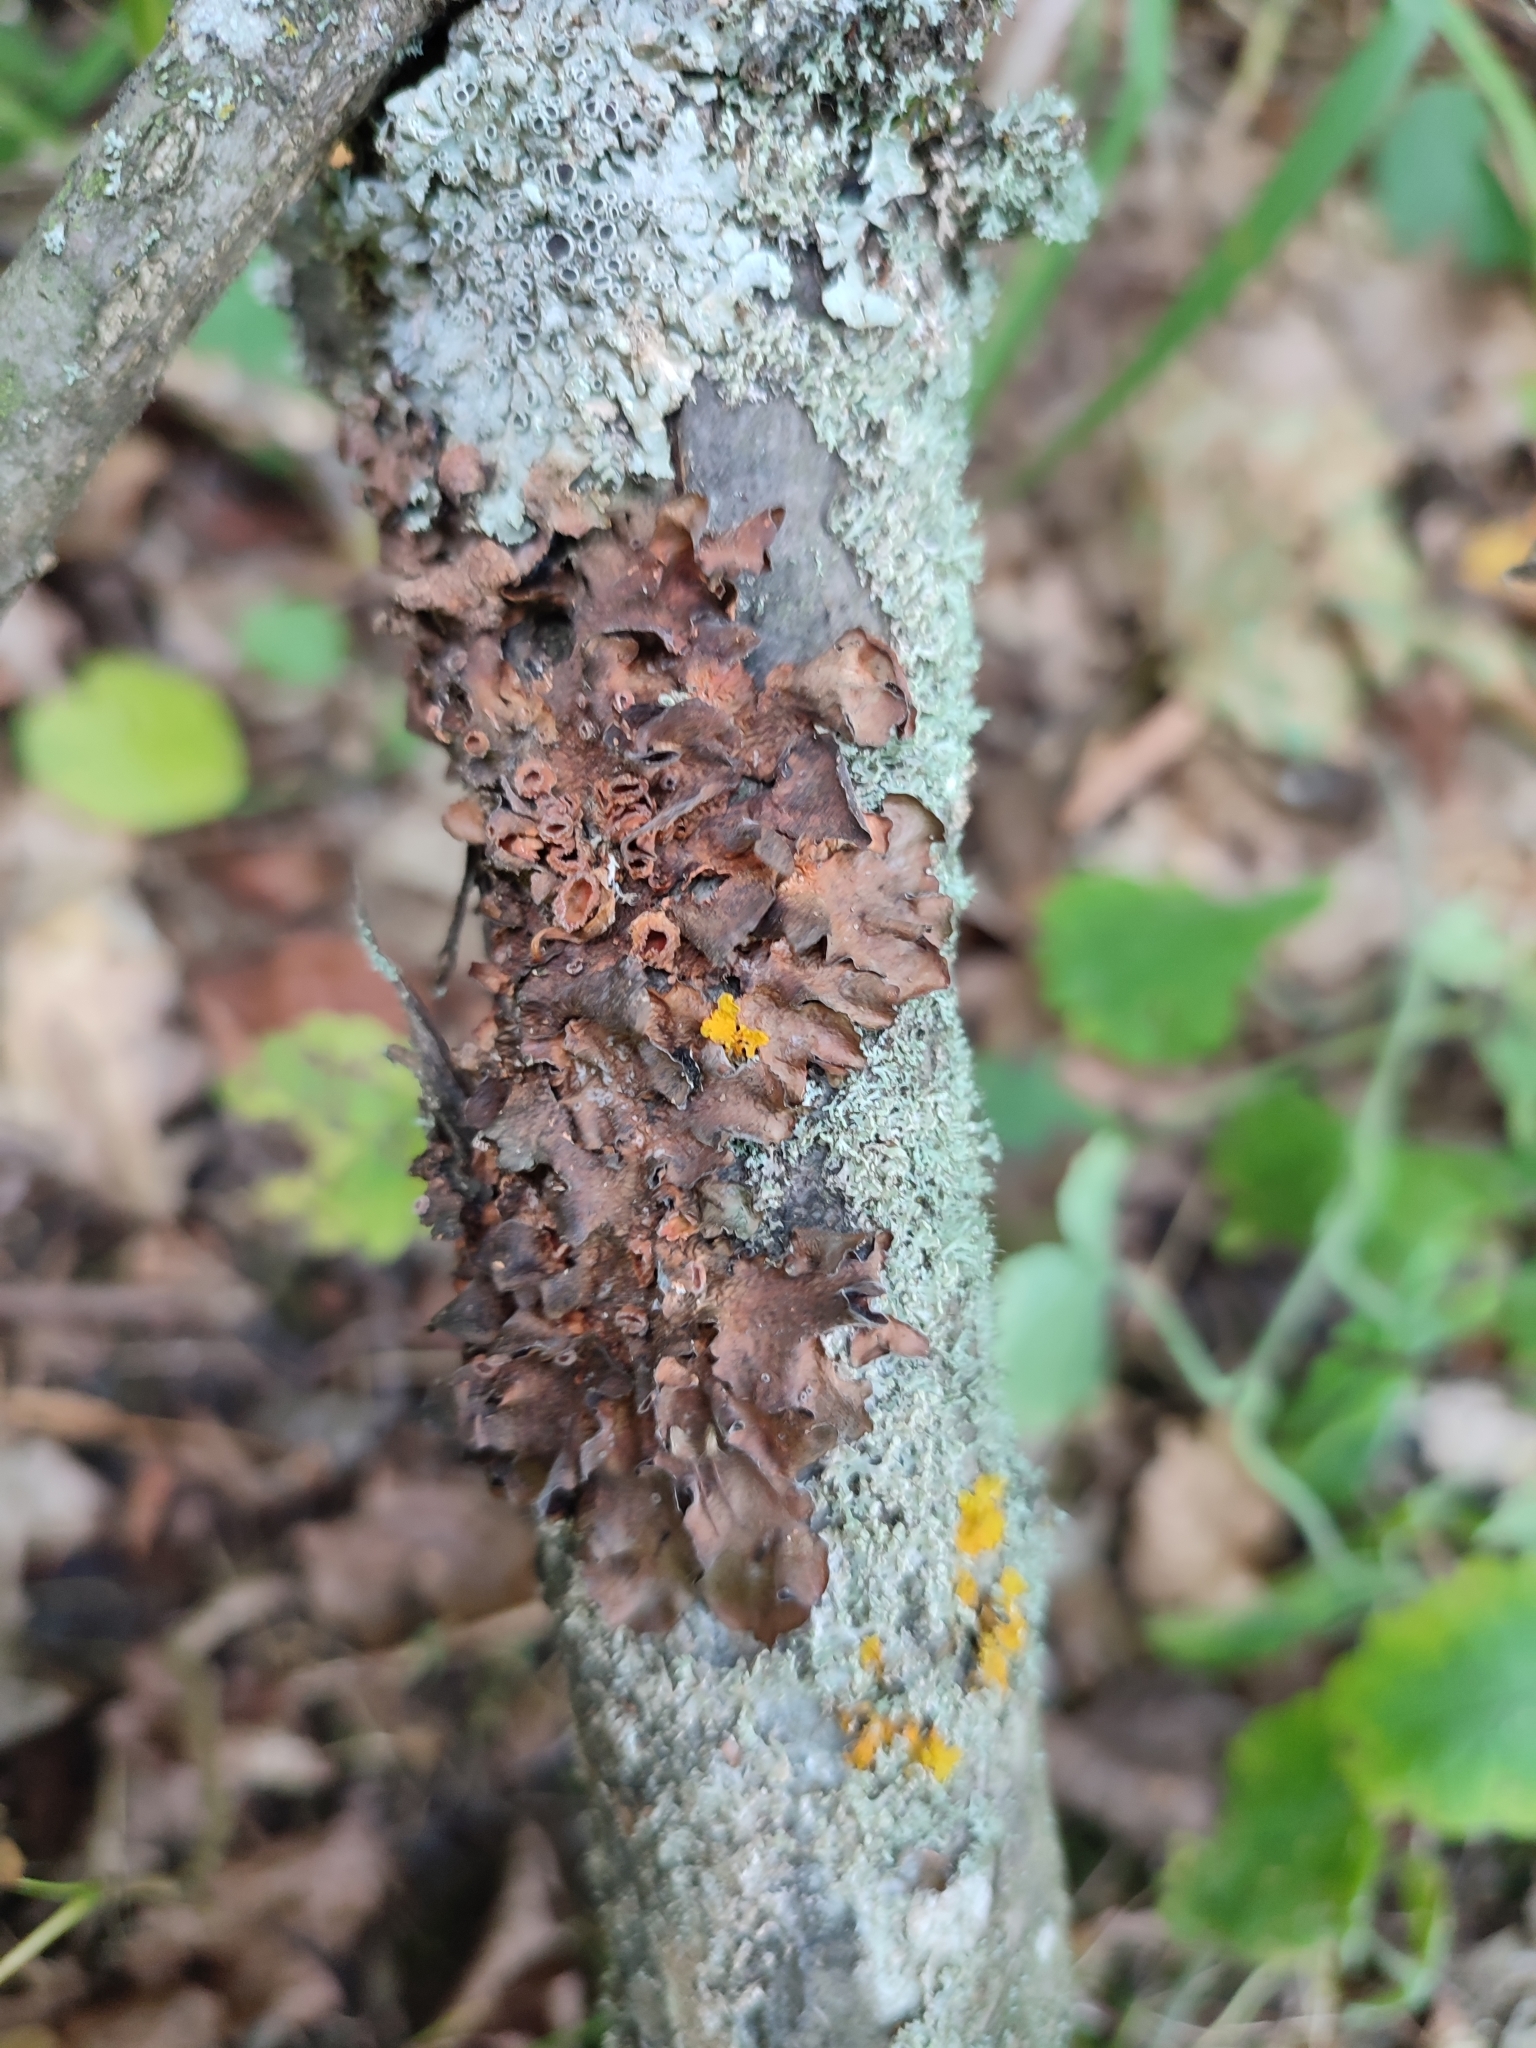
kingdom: Fungi
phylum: Ascomycota
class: Lecanoromycetes
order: Lecanorales
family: Parmeliaceae
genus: Pleurosticta
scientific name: Pleurosticta acetabulum
